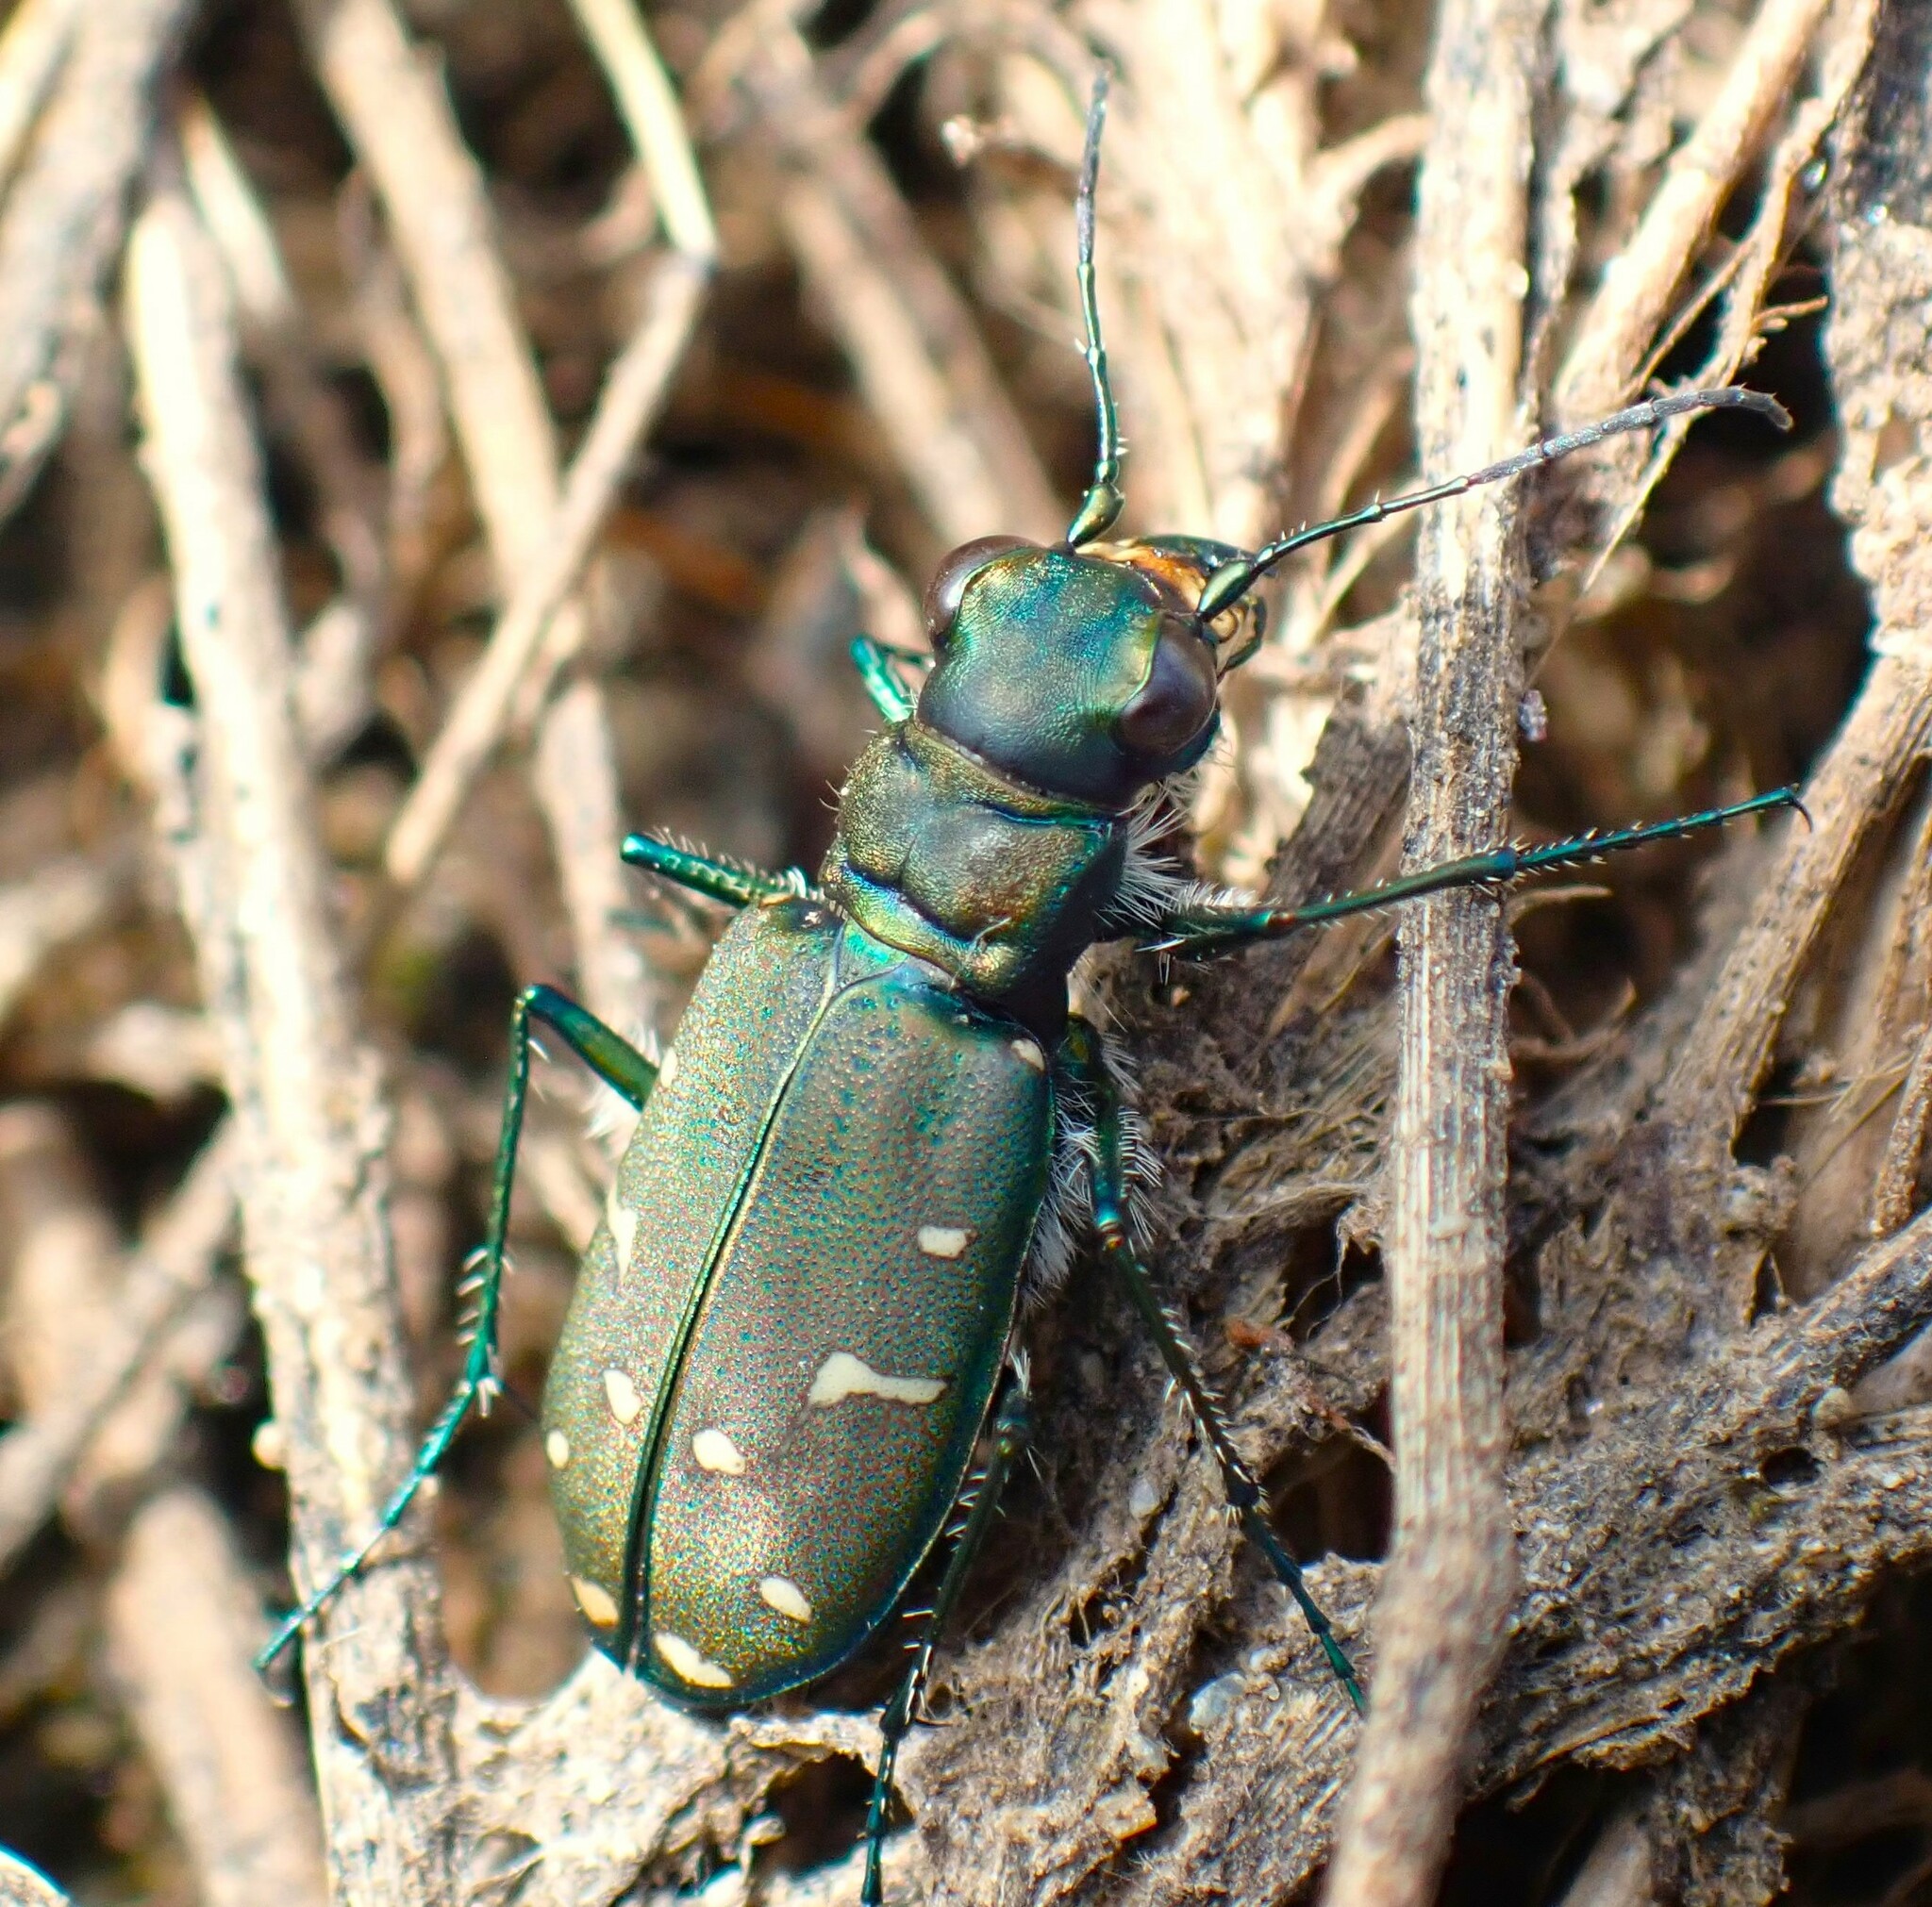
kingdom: Animalia
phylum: Arthropoda
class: Insecta
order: Coleoptera
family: Carabidae
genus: Cicindela
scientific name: Cicindela oregona
